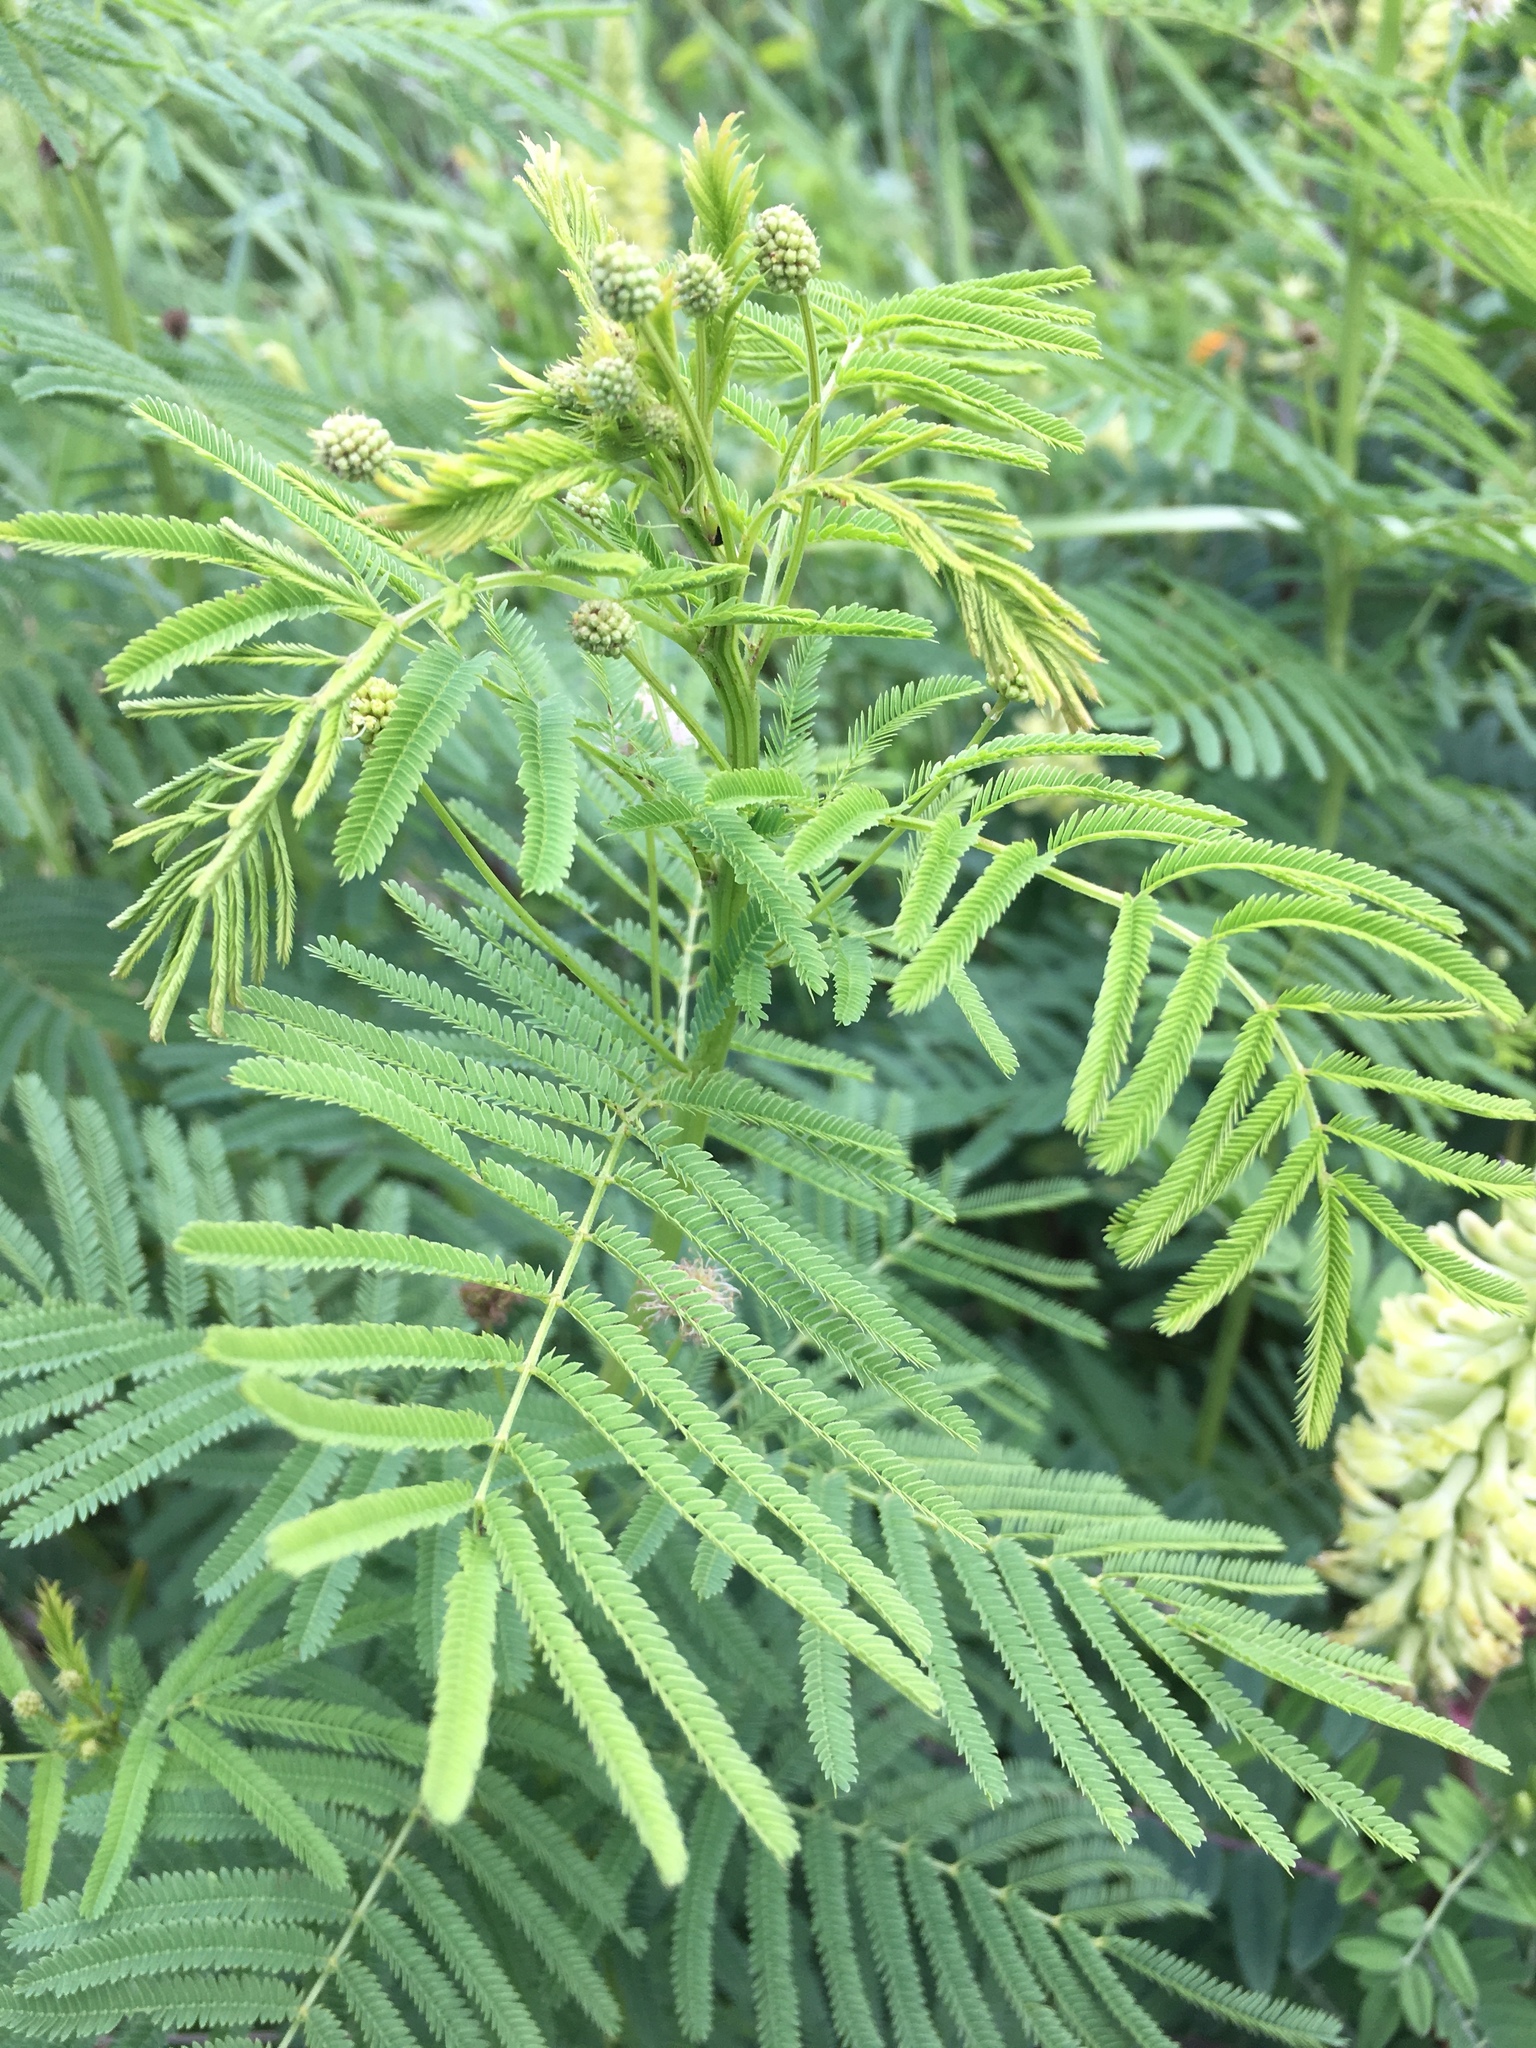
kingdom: Plantae
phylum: Tracheophyta
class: Magnoliopsida
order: Fabales
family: Fabaceae
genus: Desmanthus
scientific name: Desmanthus illinoensis
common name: Illinois bundle-flower
